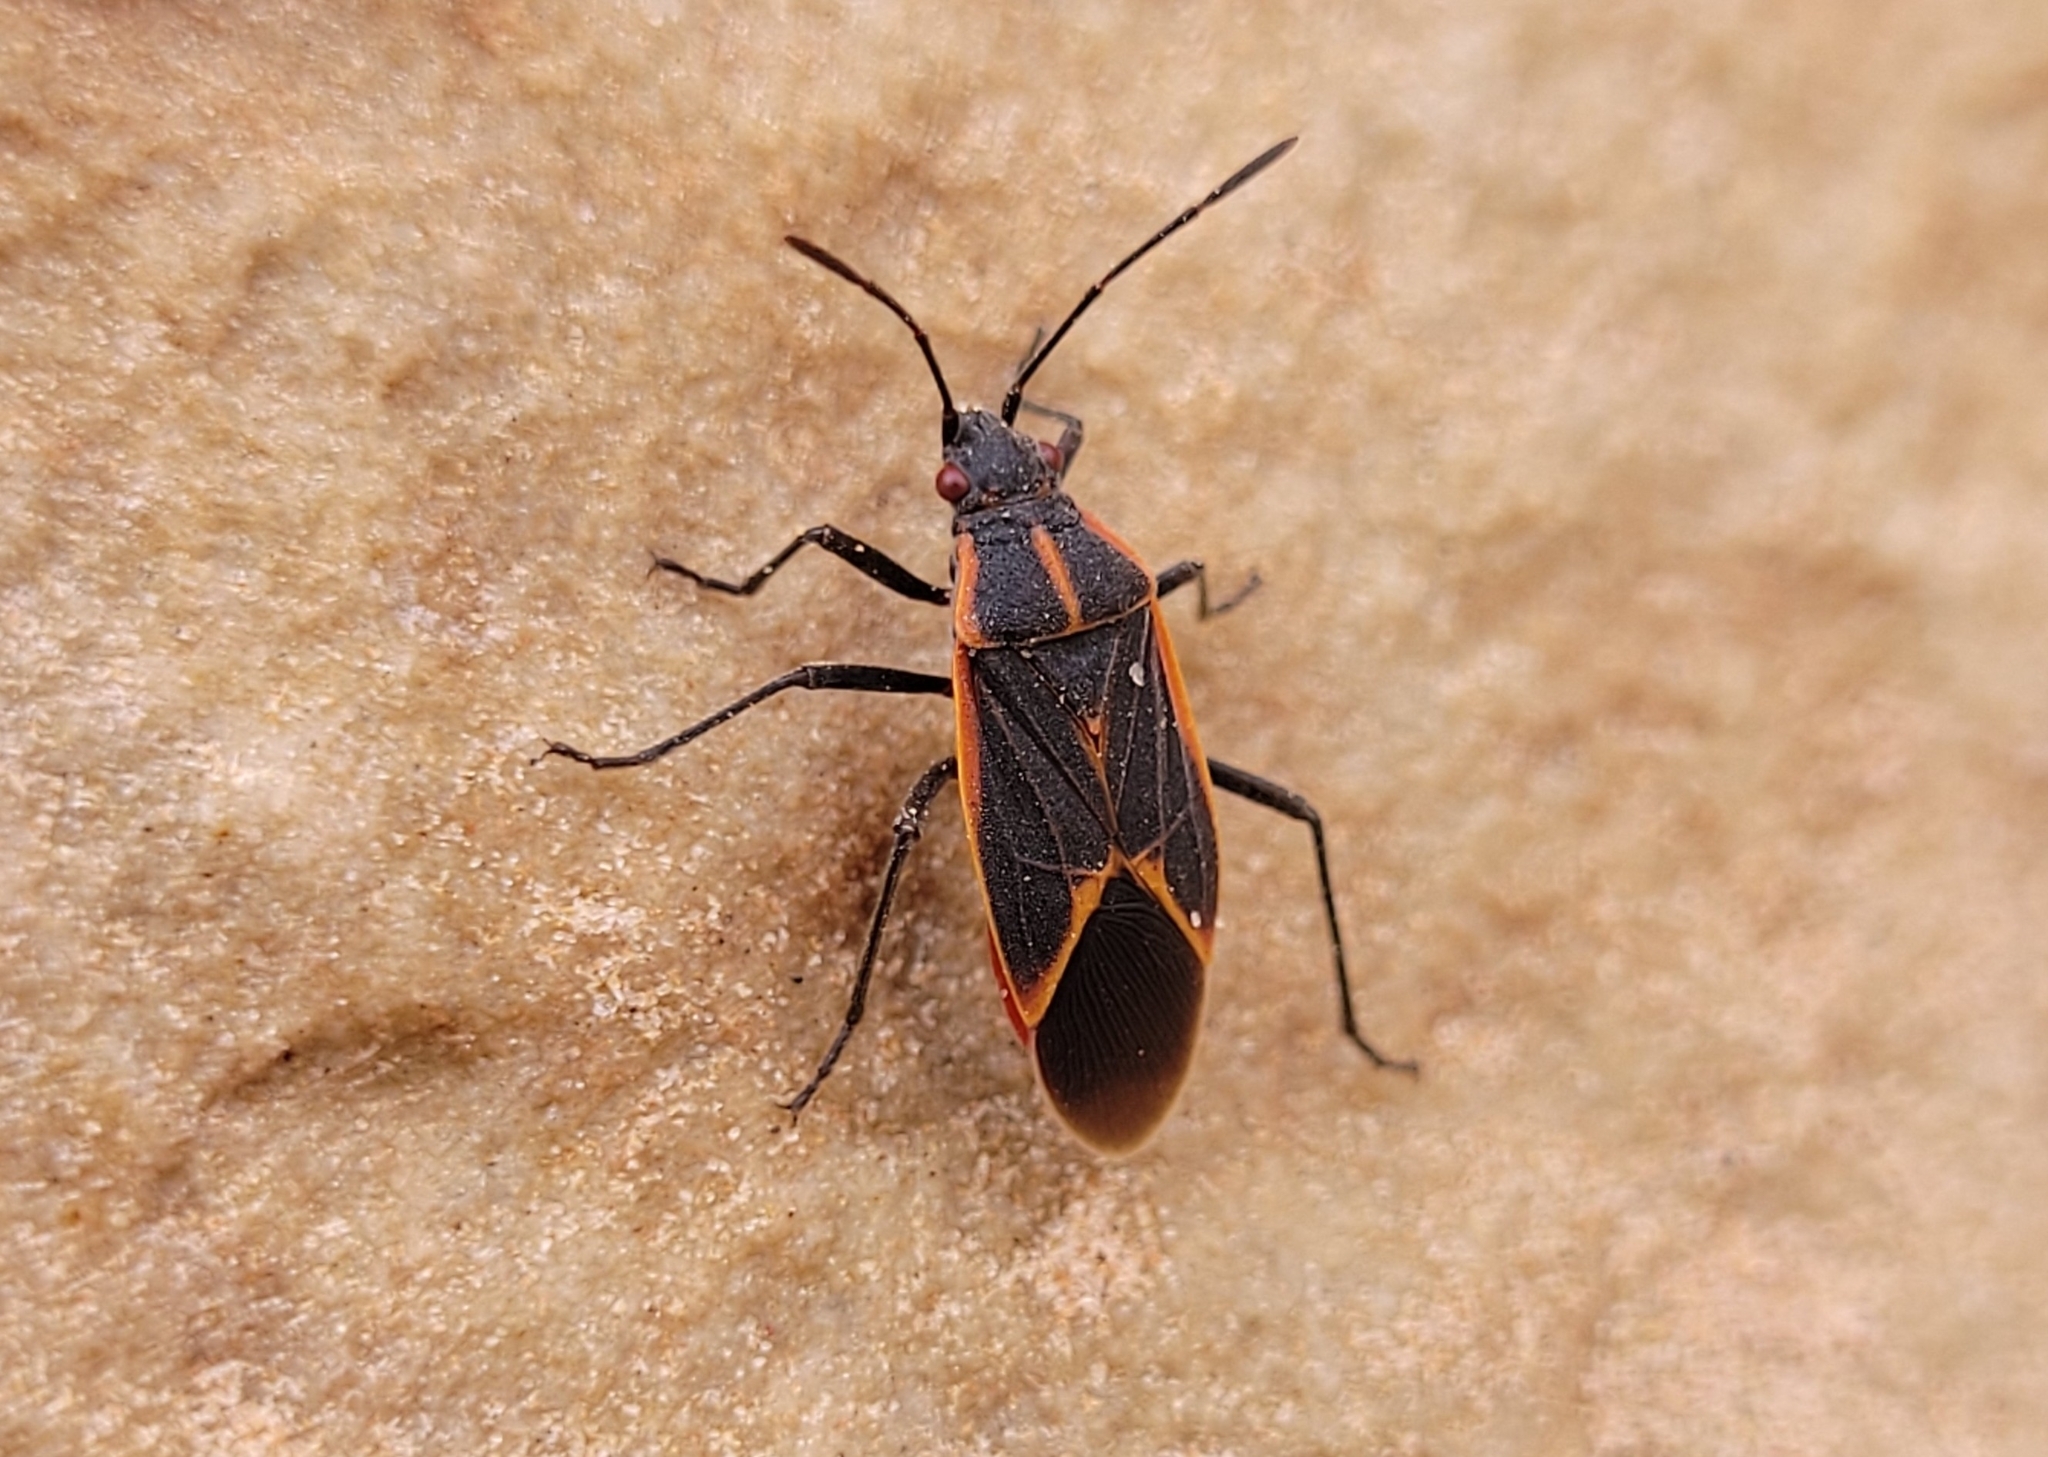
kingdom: Animalia
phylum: Arthropoda
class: Insecta
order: Hemiptera
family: Rhopalidae
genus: Boisea
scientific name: Boisea trivittata
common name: Boxelder bug
